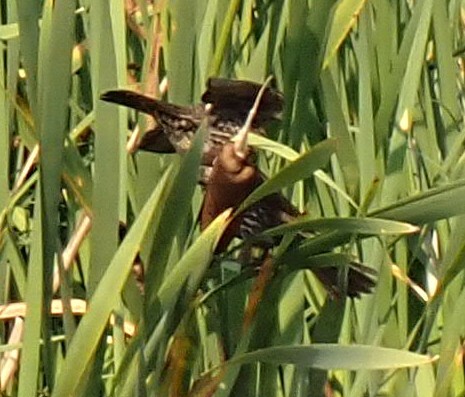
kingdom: Animalia
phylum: Chordata
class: Aves
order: Passeriformes
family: Icteridae
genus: Agelaius
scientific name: Agelaius phoeniceus
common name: Red-winged blackbird
